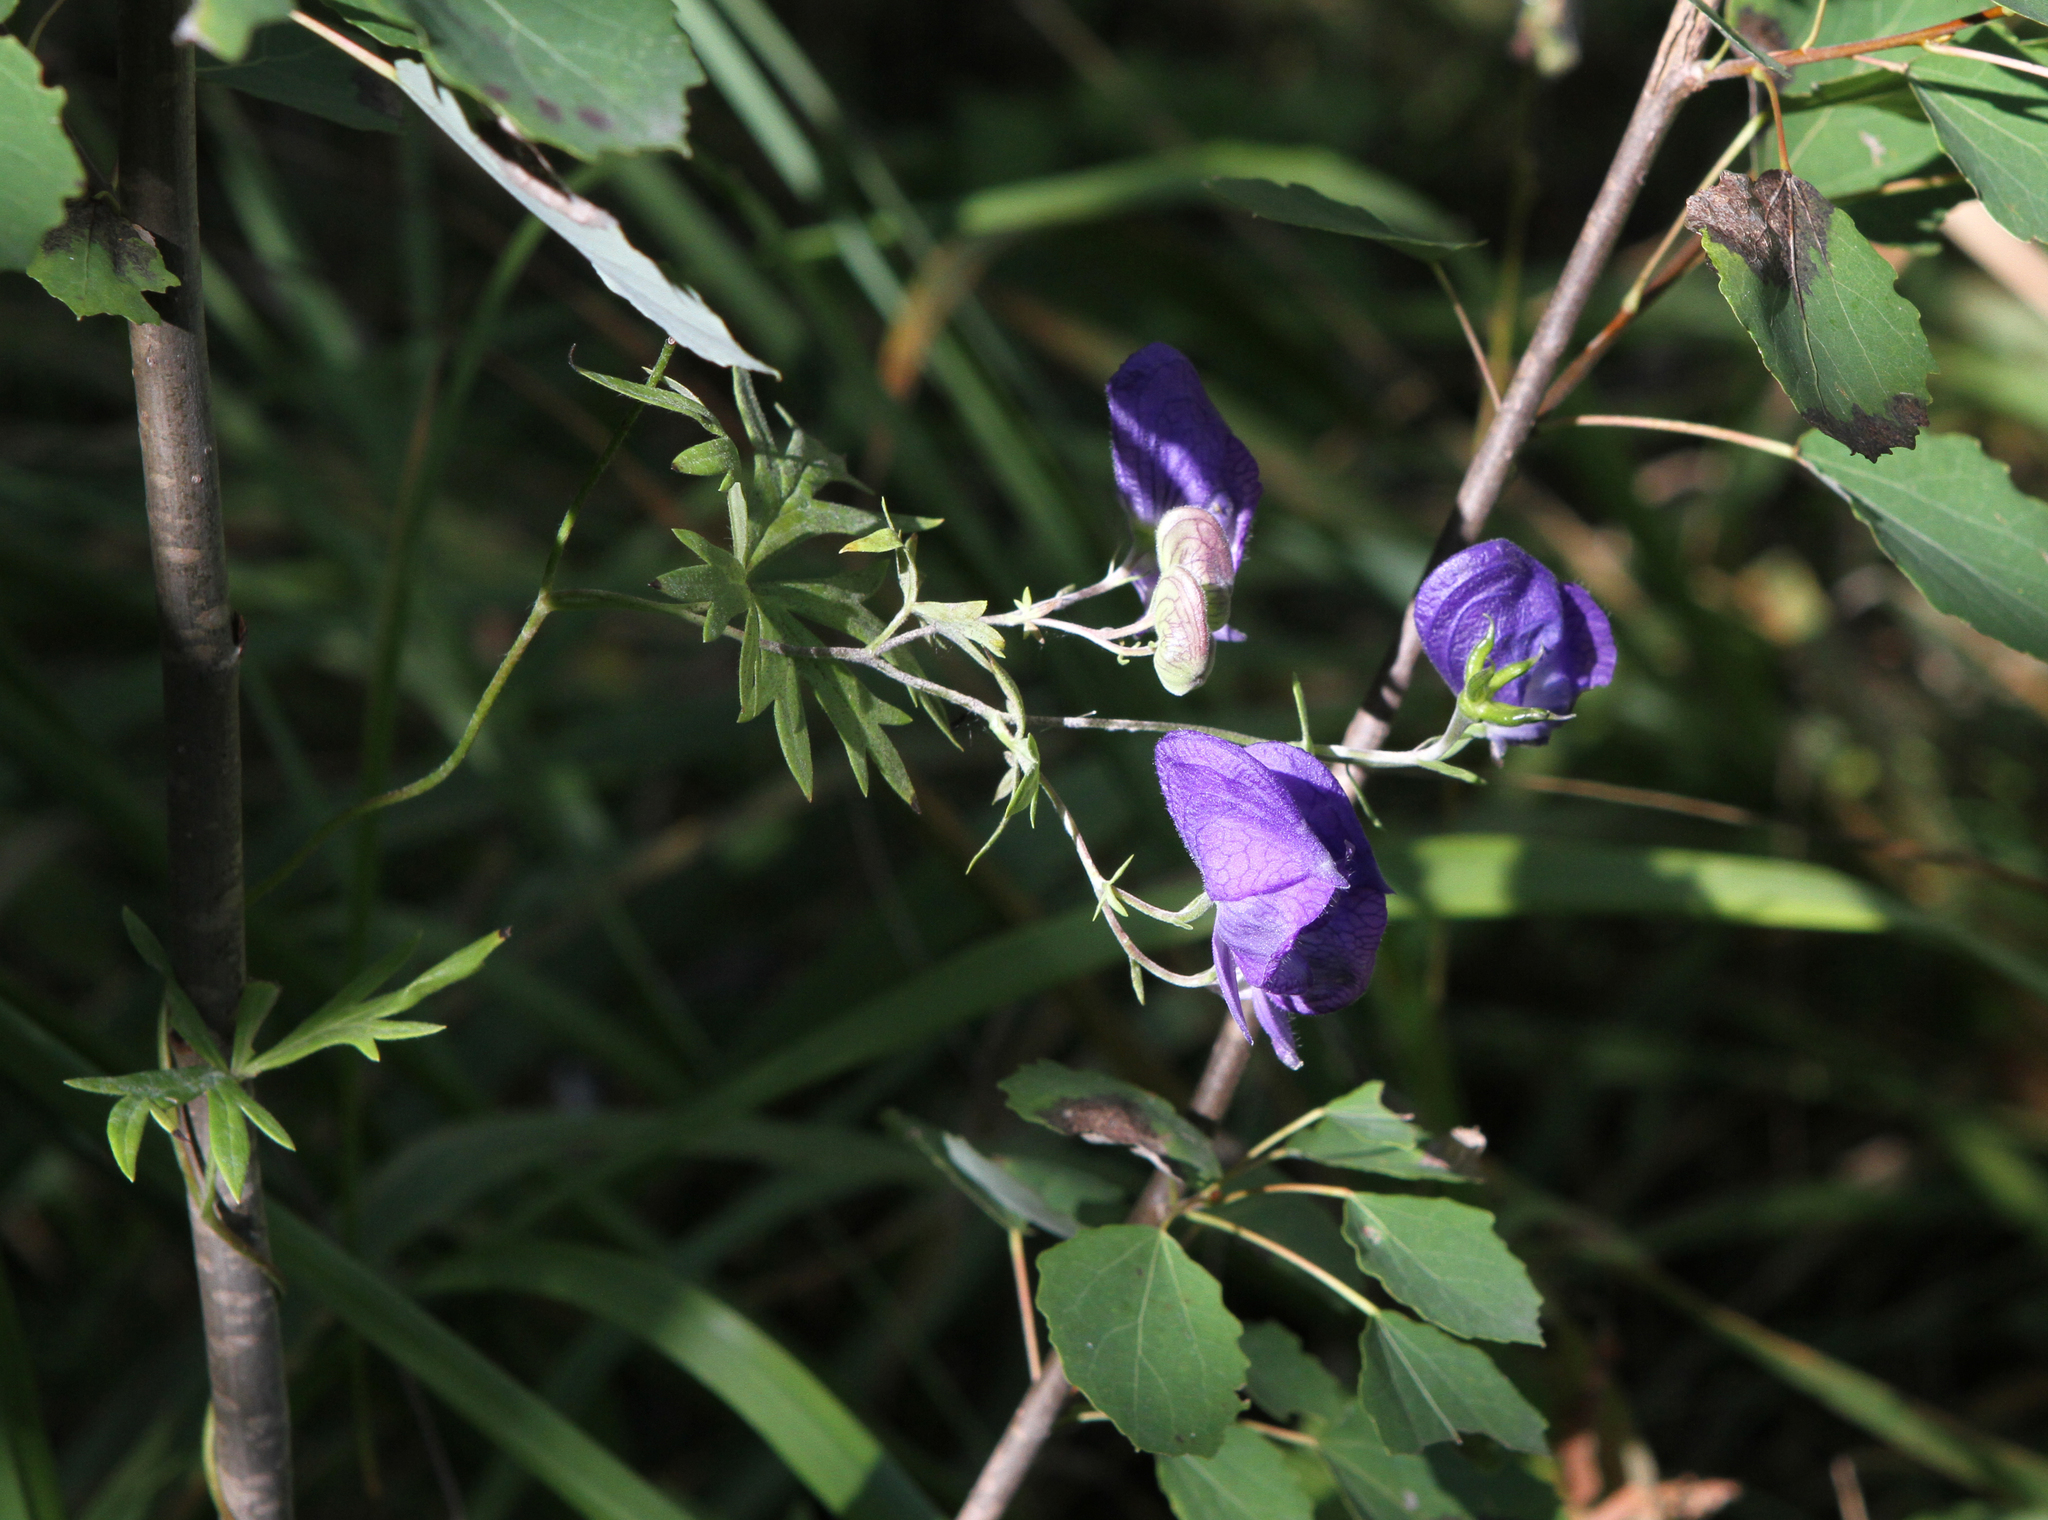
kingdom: Plantae
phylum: Tracheophyta
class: Magnoliopsida
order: Ranunculales
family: Ranunculaceae
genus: Aconitum
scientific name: Aconitum volubile
